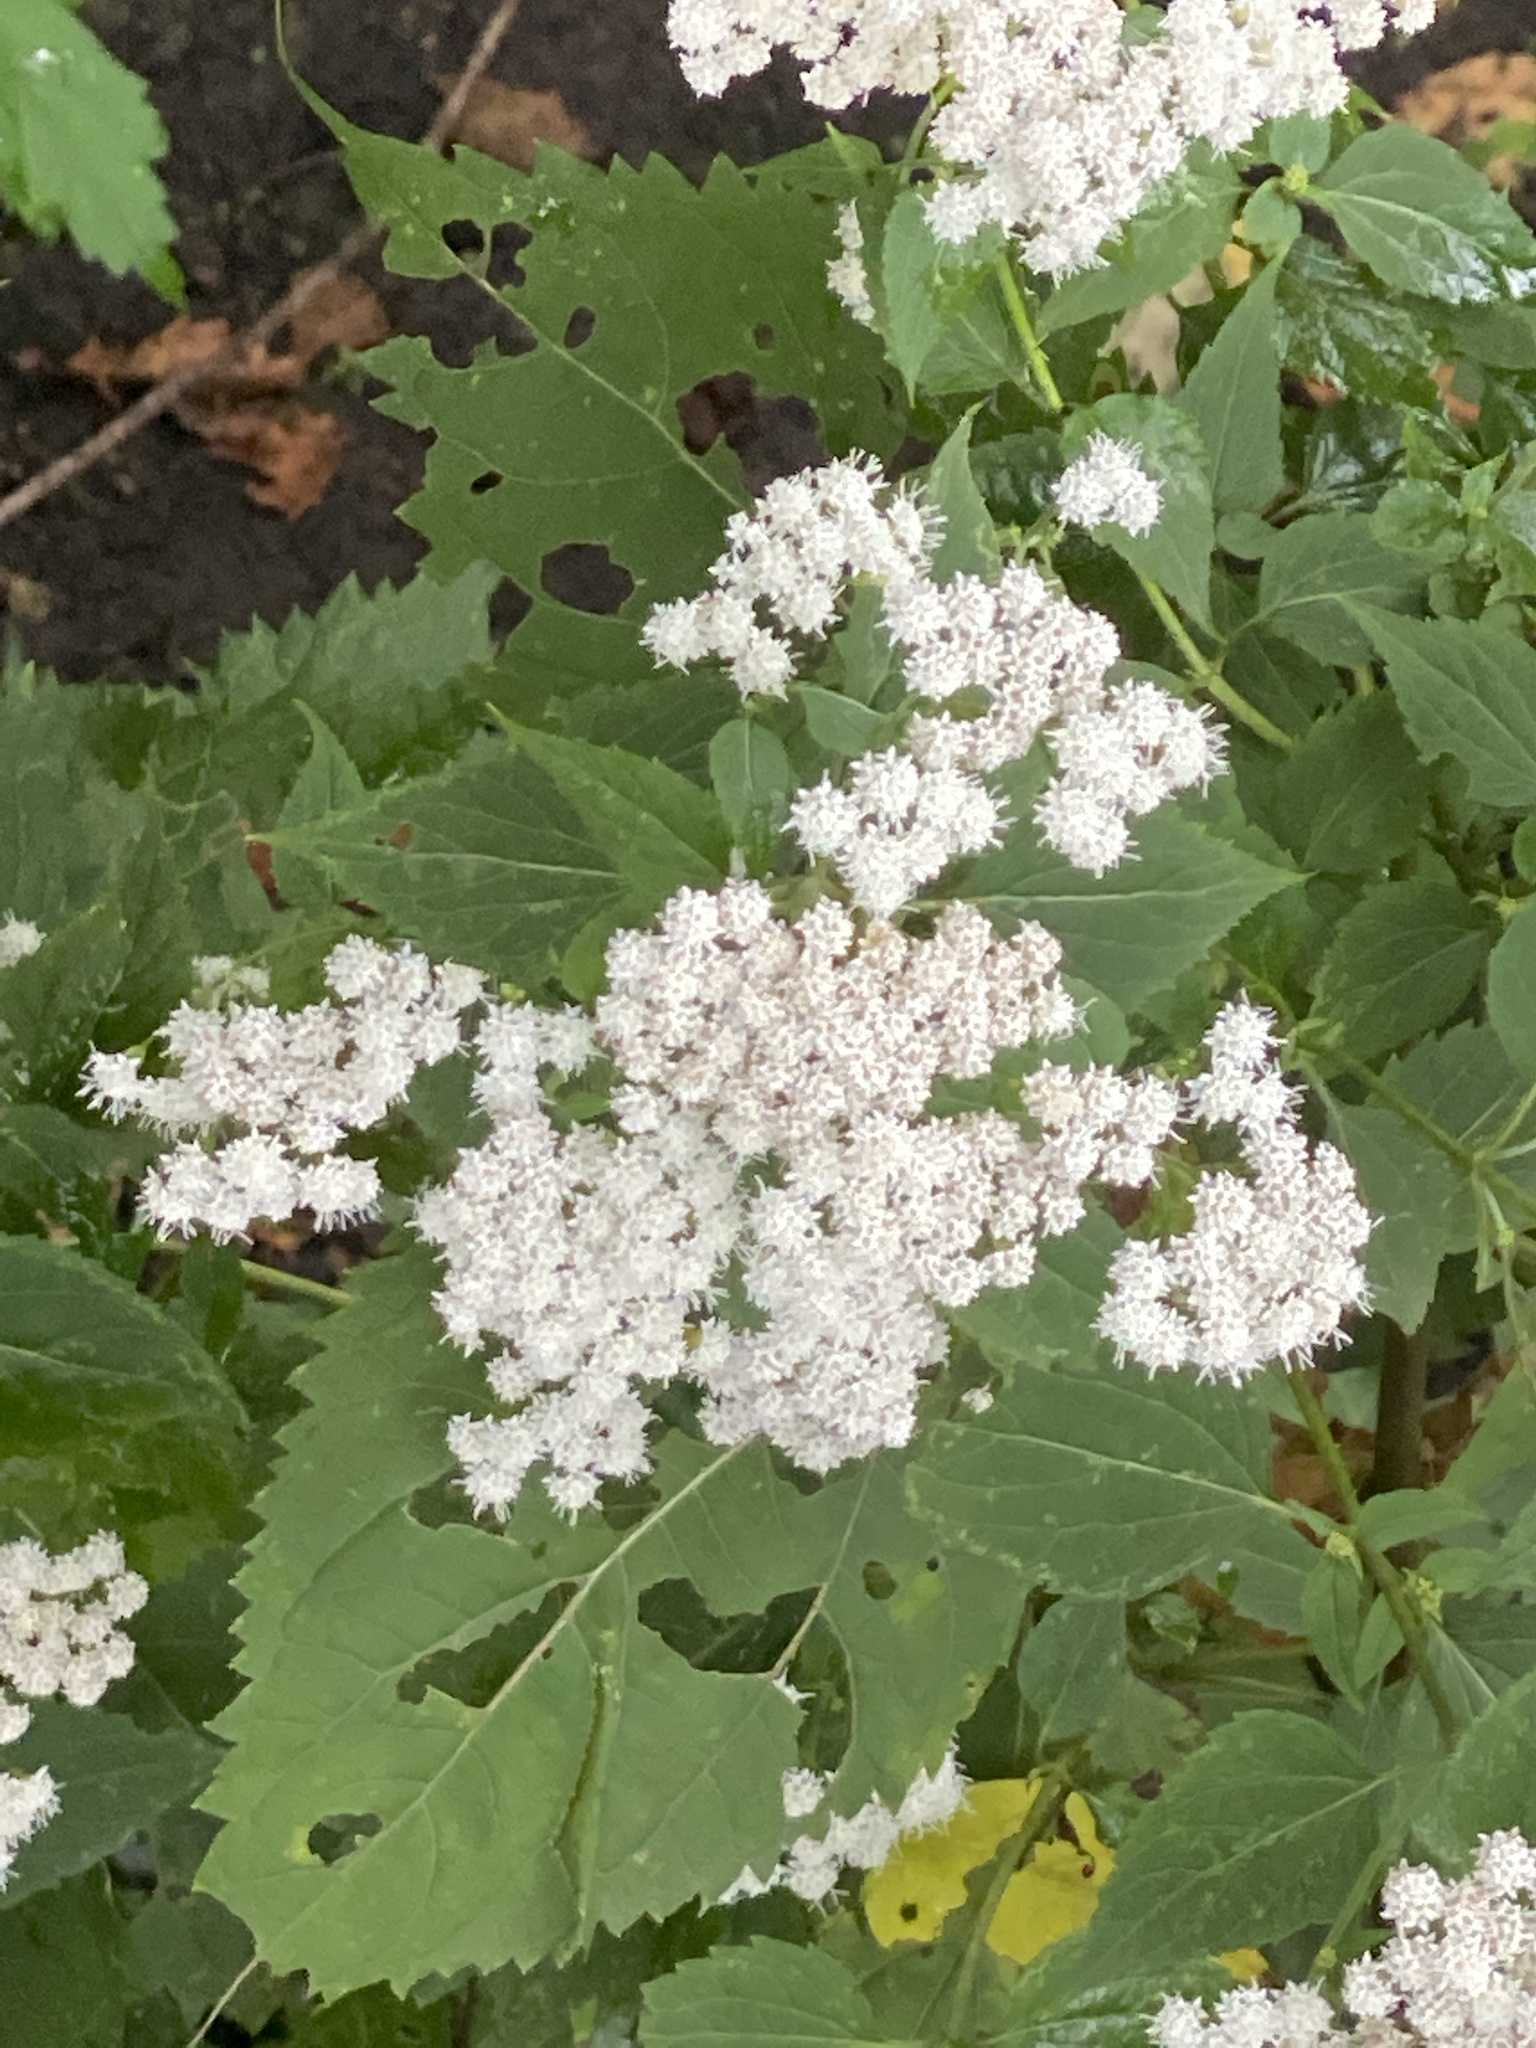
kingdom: Plantae
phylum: Tracheophyta
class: Magnoliopsida
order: Asterales
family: Asteraceae
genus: Ageratina
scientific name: Ageratina altissima
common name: White snakeroot
